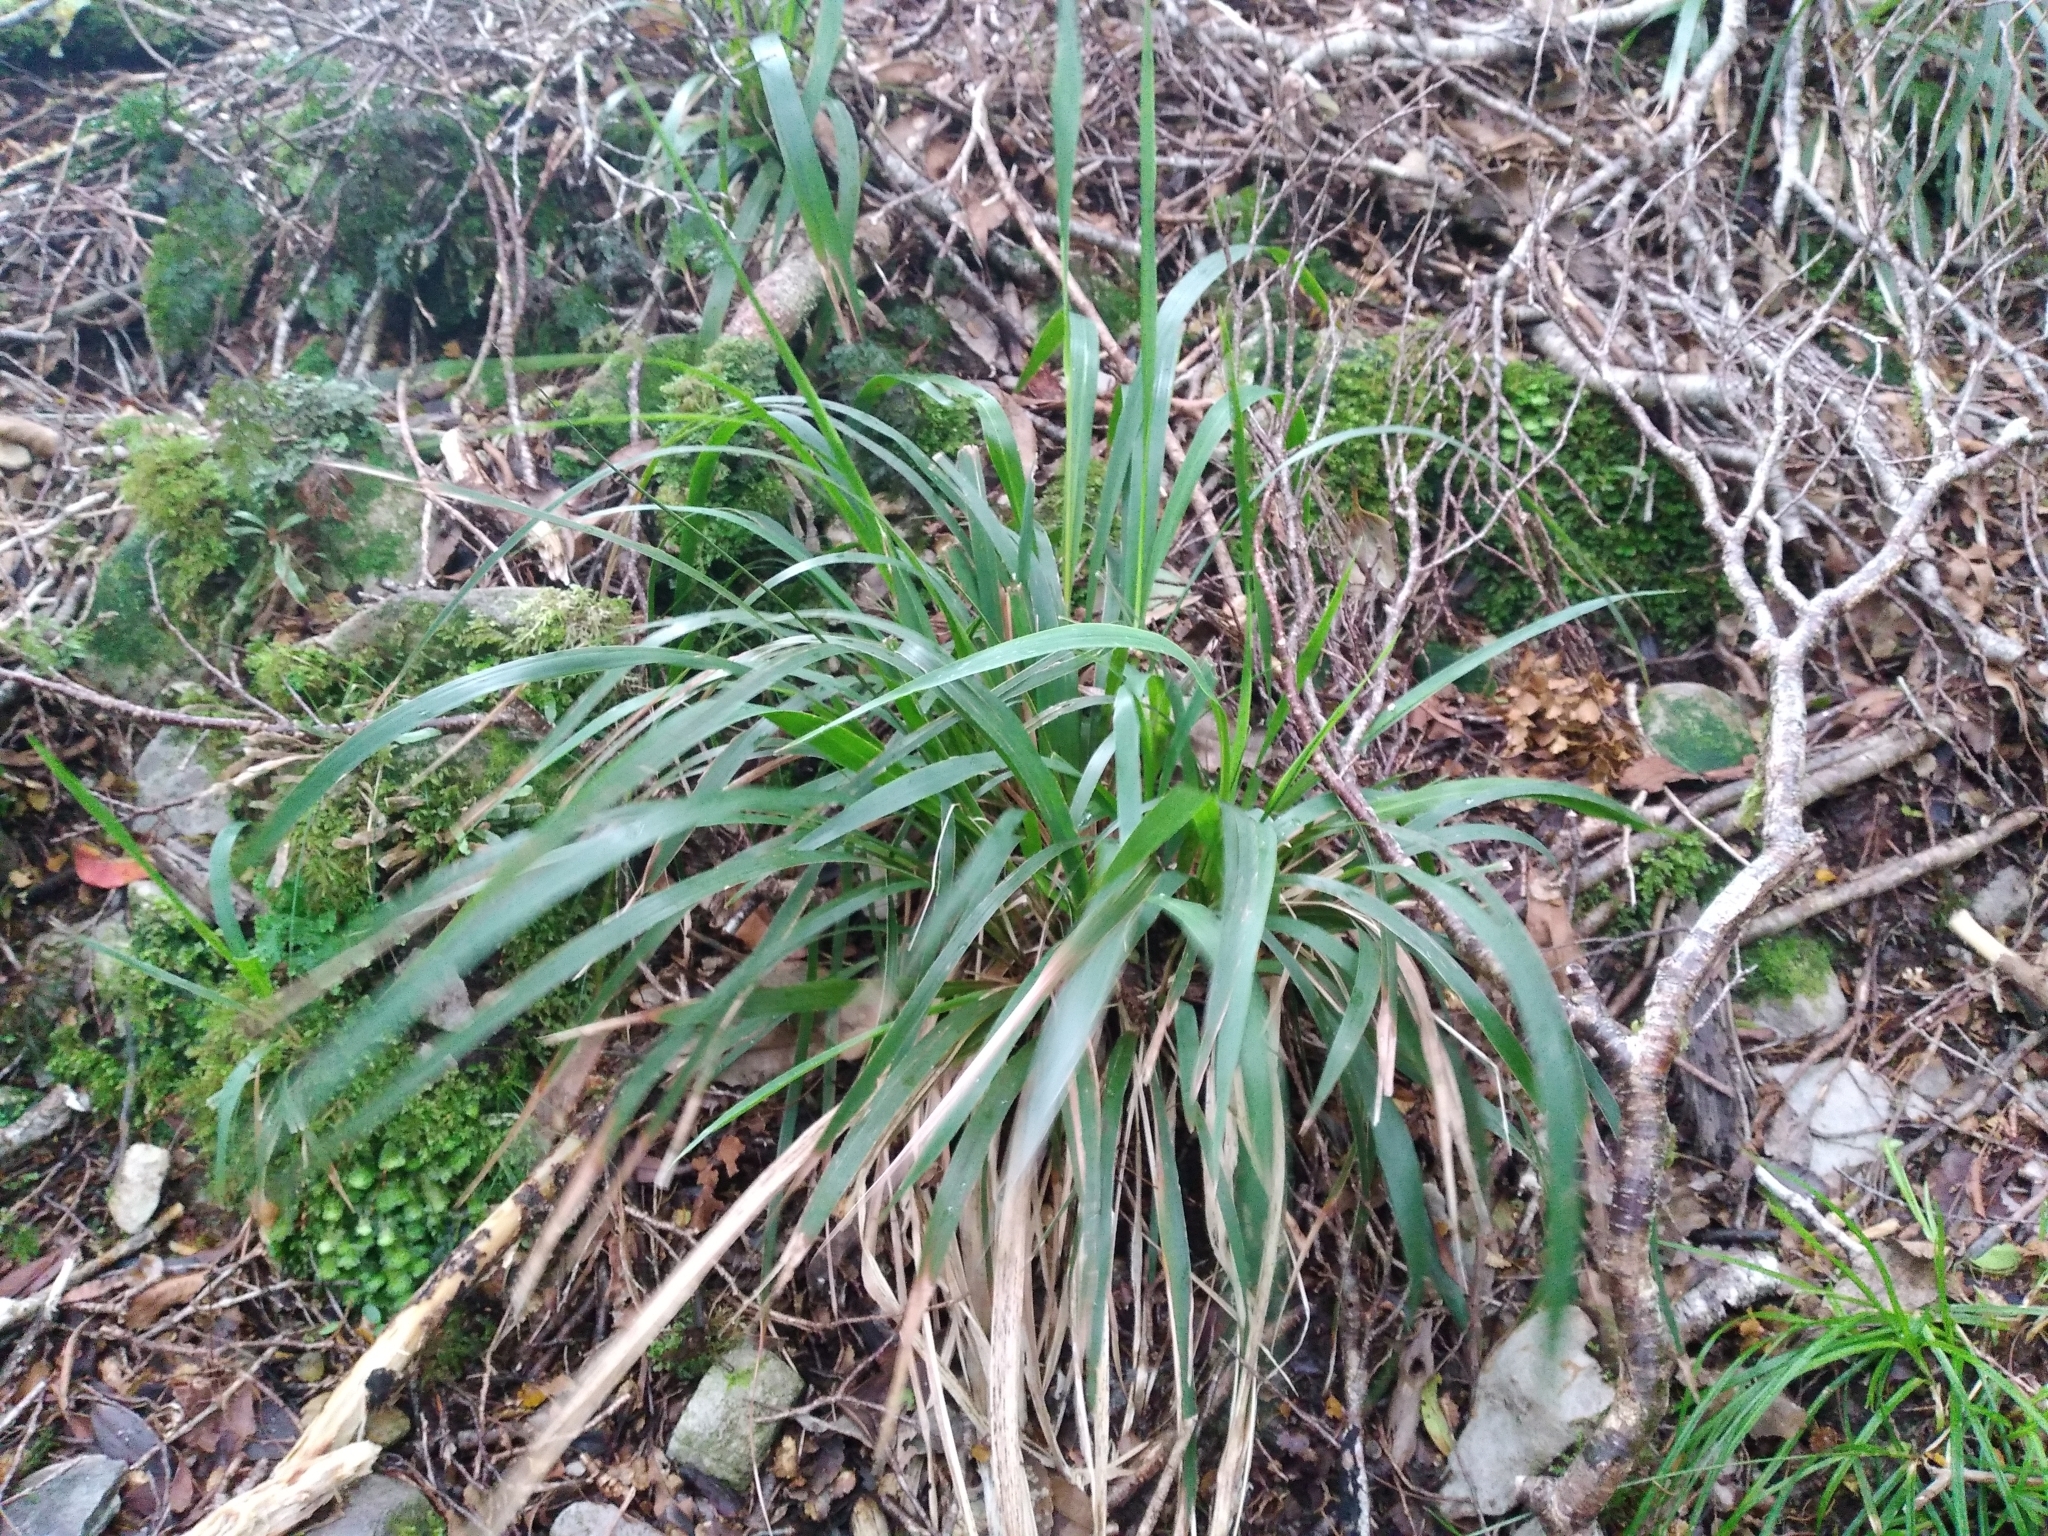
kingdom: Plantae
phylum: Tracheophyta
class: Liliopsida
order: Poales
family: Poaceae
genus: Ehrharta
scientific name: Ehrharta diplax
